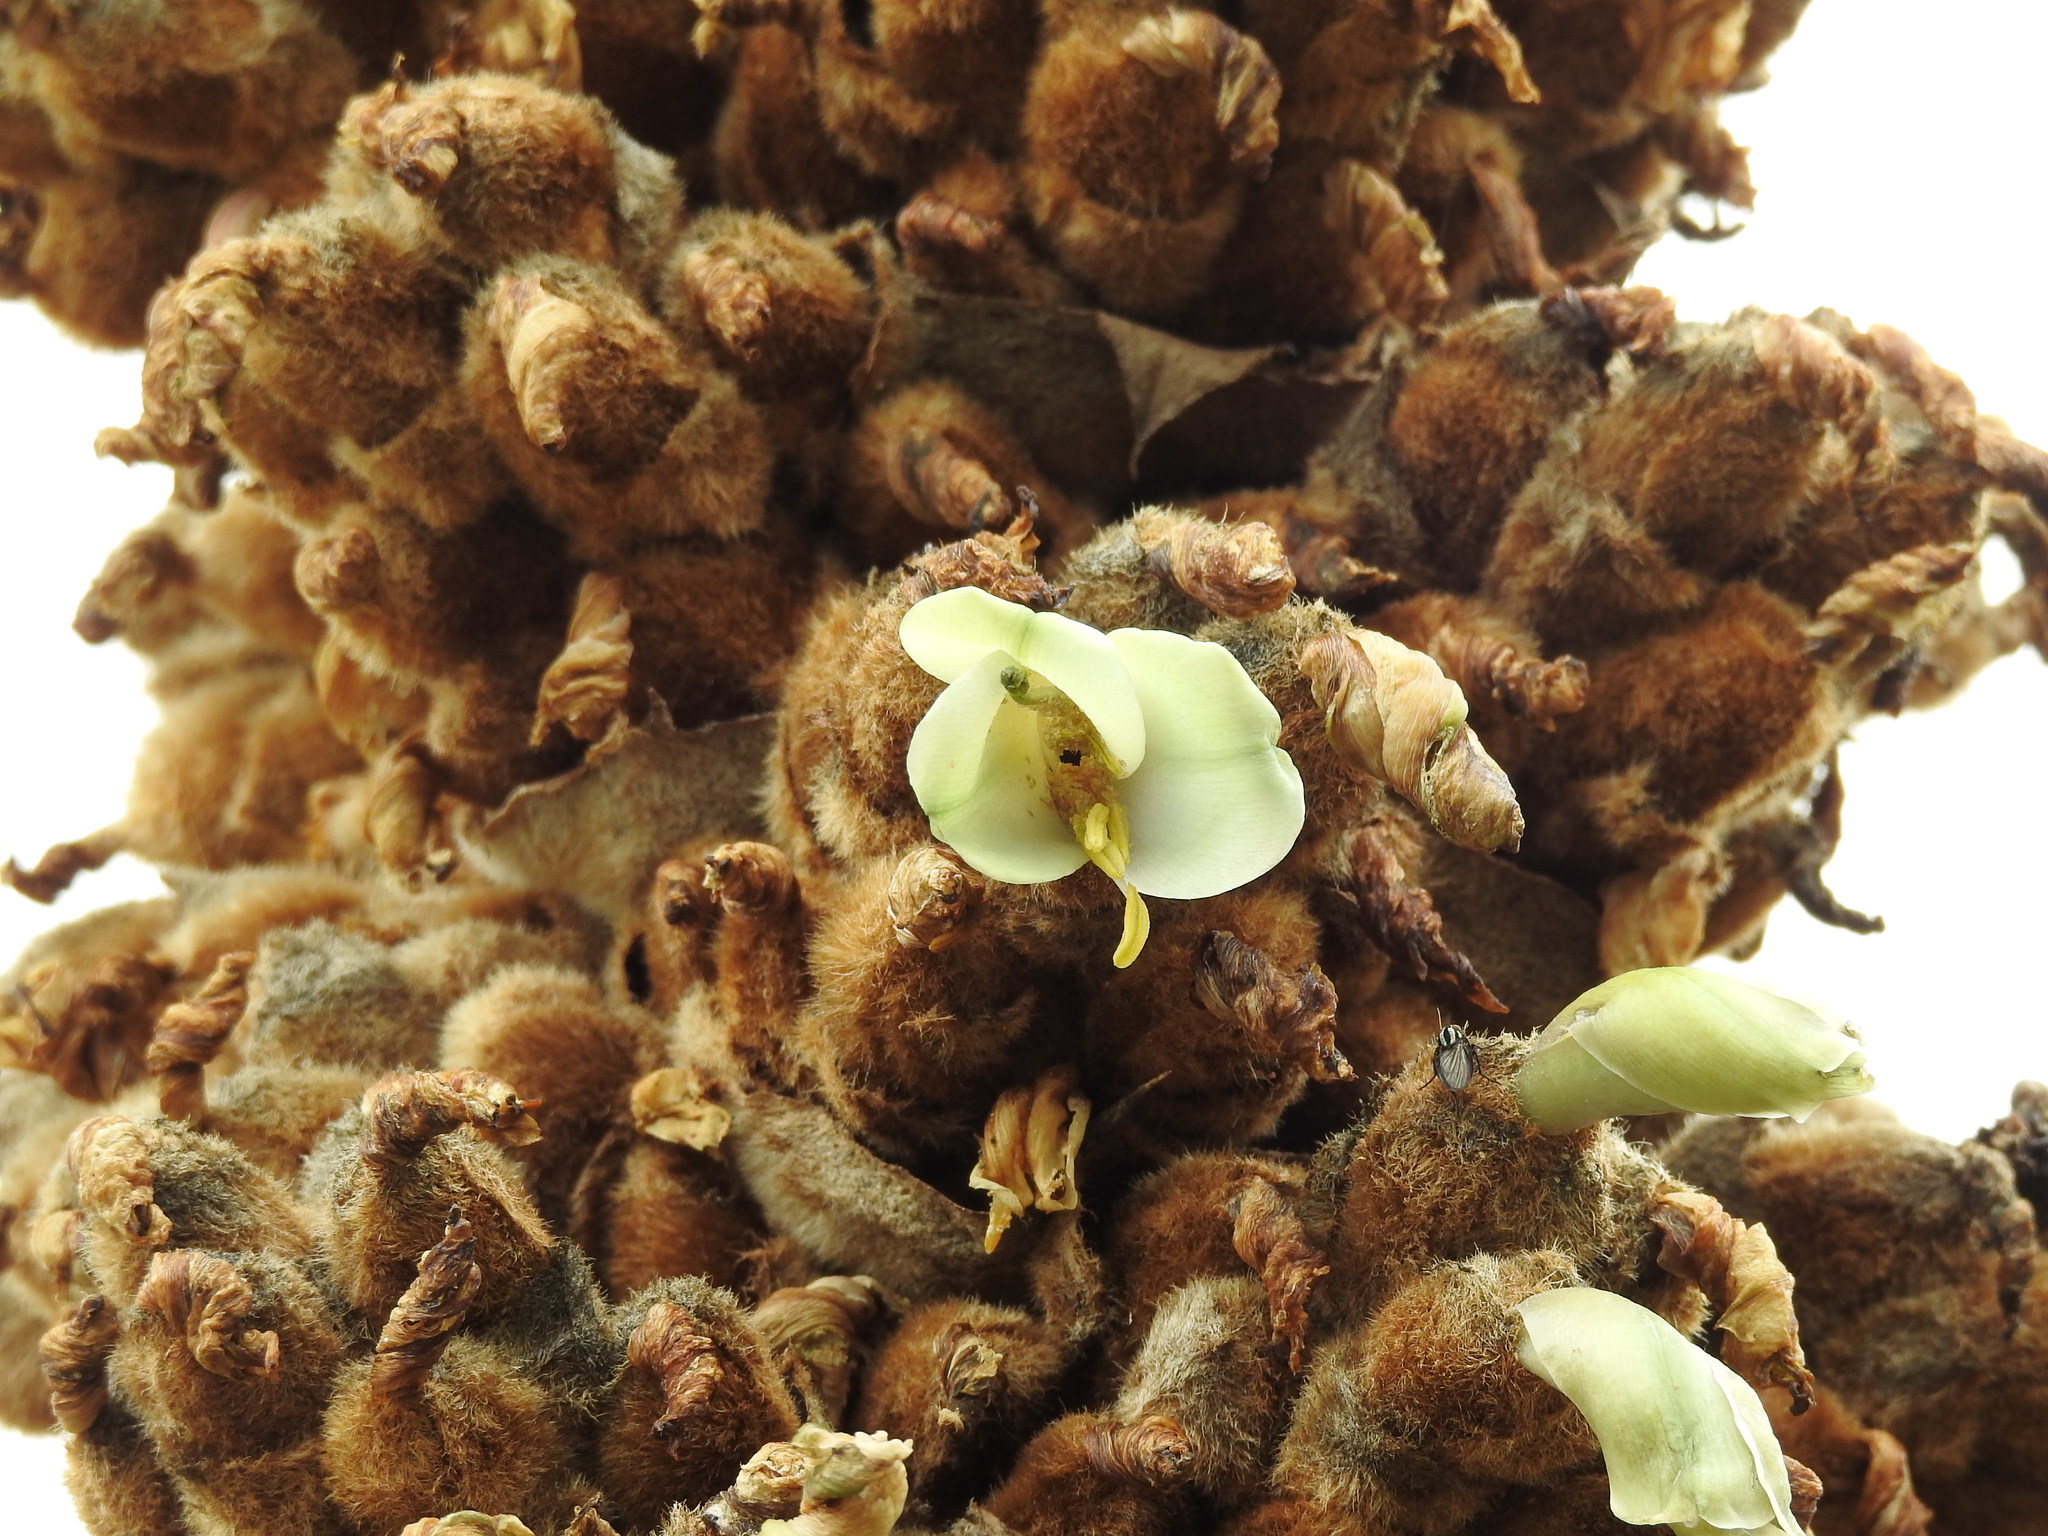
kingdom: Plantae
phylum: Tracheophyta
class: Liliopsida
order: Poales
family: Bromeliaceae
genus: Puya
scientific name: Puya retrorsa
